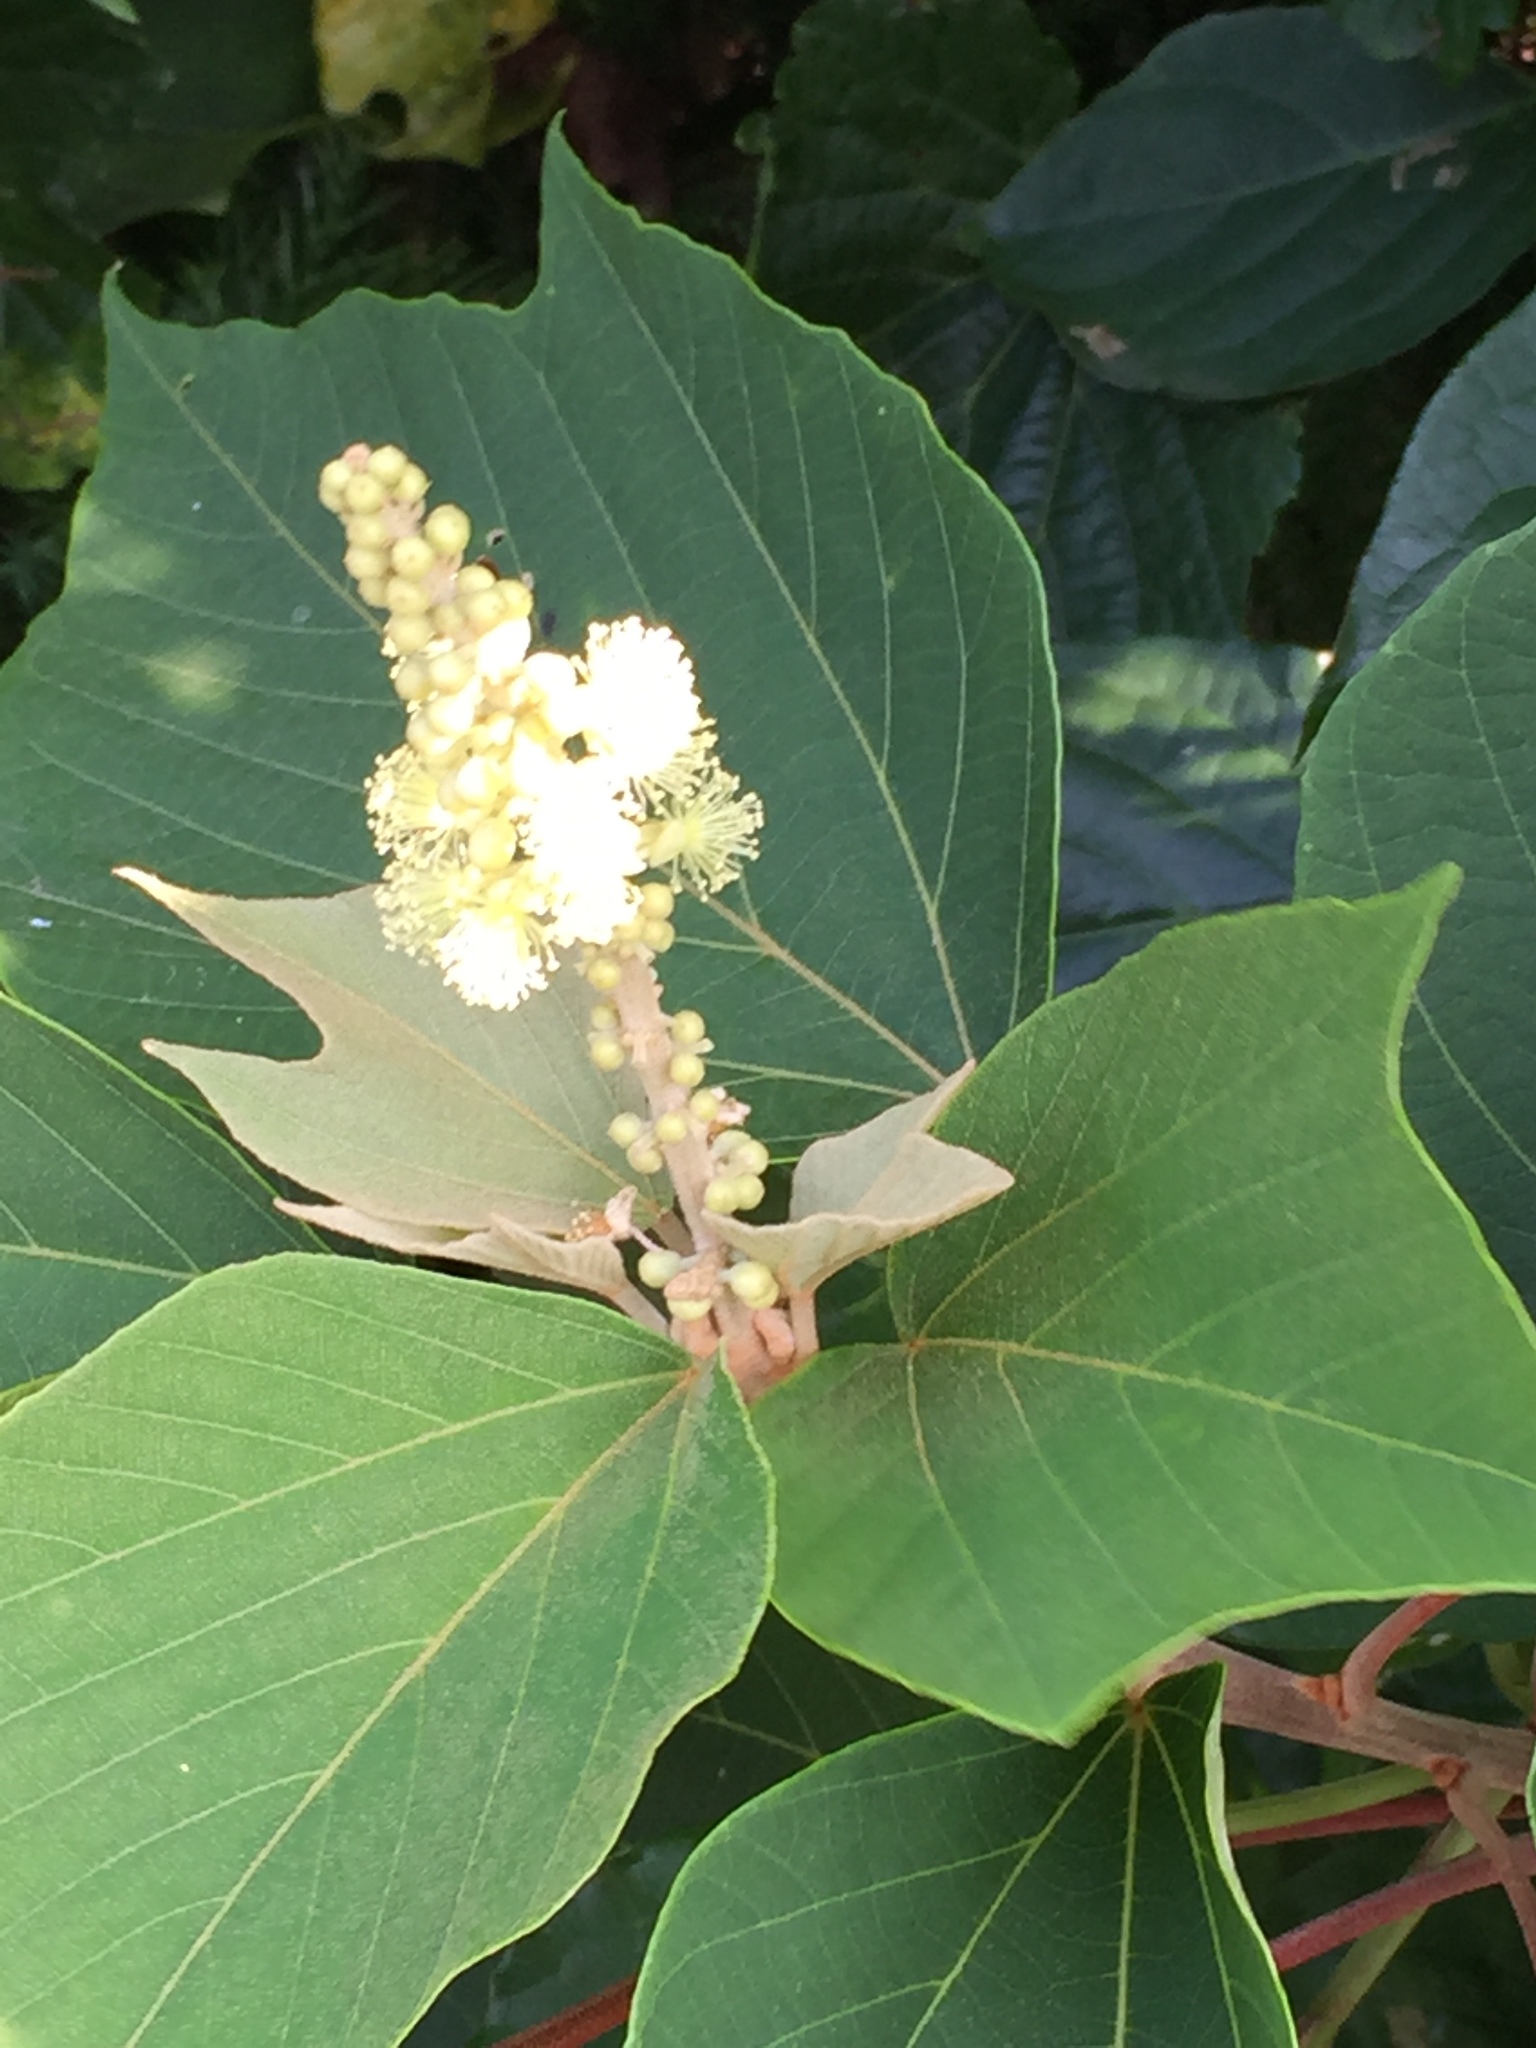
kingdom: Plantae
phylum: Tracheophyta
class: Magnoliopsida
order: Malpighiales
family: Euphorbiaceae
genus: Mallotus
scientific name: Mallotus japonicus
